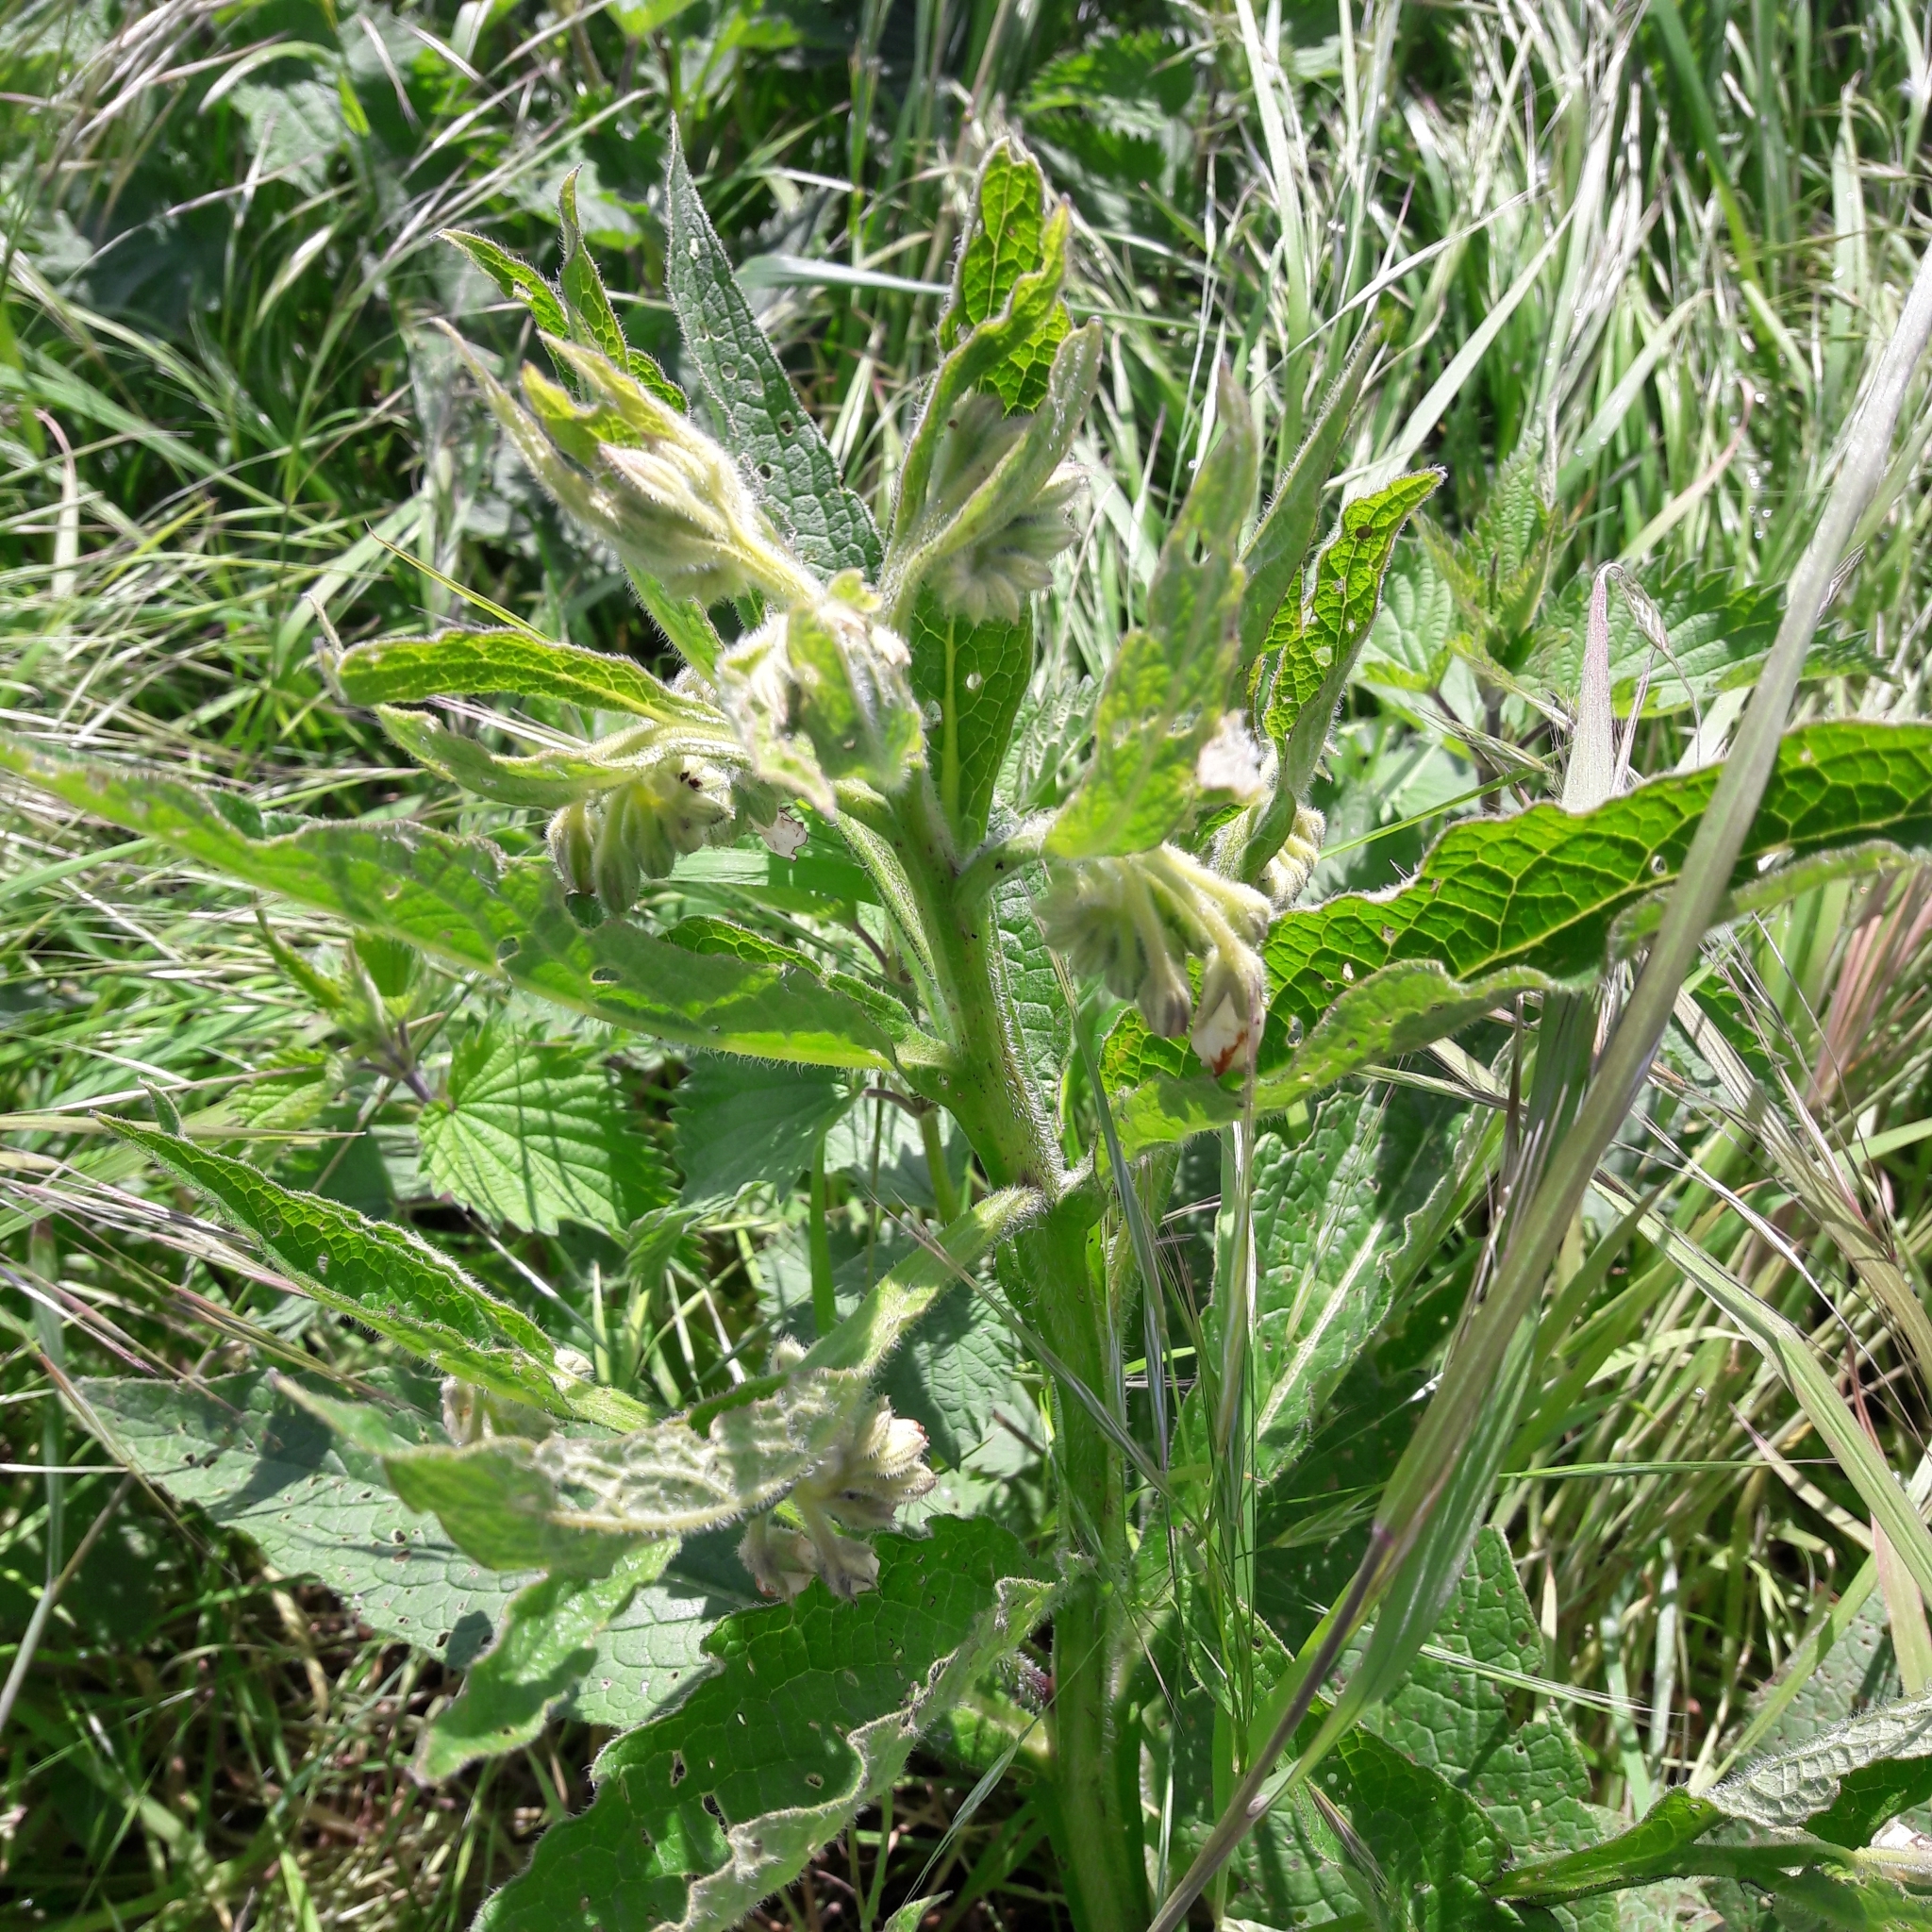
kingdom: Plantae
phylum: Tracheophyta
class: Magnoliopsida
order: Boraginales
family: Boraginaceae
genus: Symphytum
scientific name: Symphytum officinale
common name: Common comfrey
